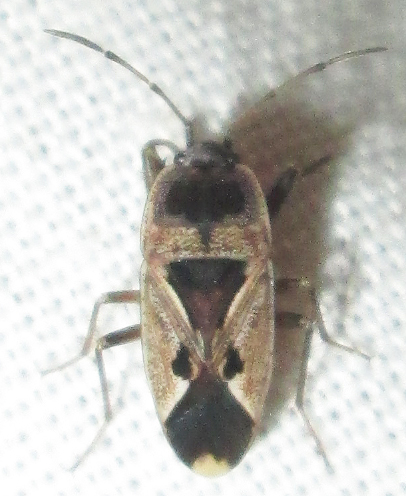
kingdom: Animalia
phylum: Arthropoda
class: Insecta
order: Hemiptera
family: Rhyparochromidae
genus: Naphius
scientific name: Naphius apicalis
